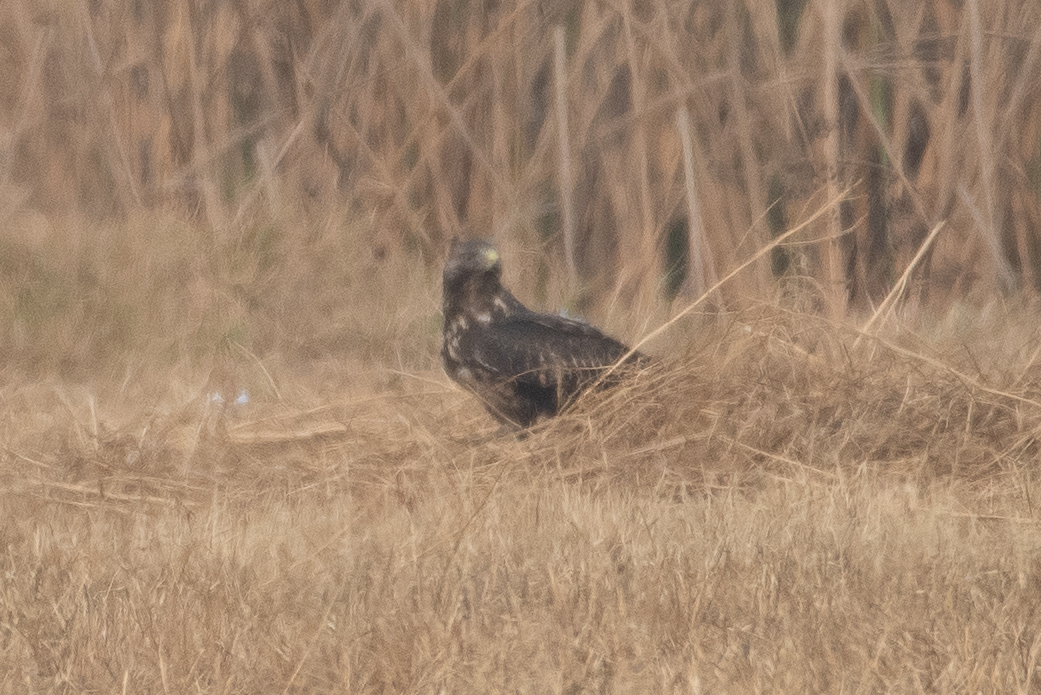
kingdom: Animalia
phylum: Chordata
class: Aves
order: Accipitriformes
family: Accipitridae
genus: Buteo
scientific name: Buteo swainsoni
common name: Swainson's hawk
